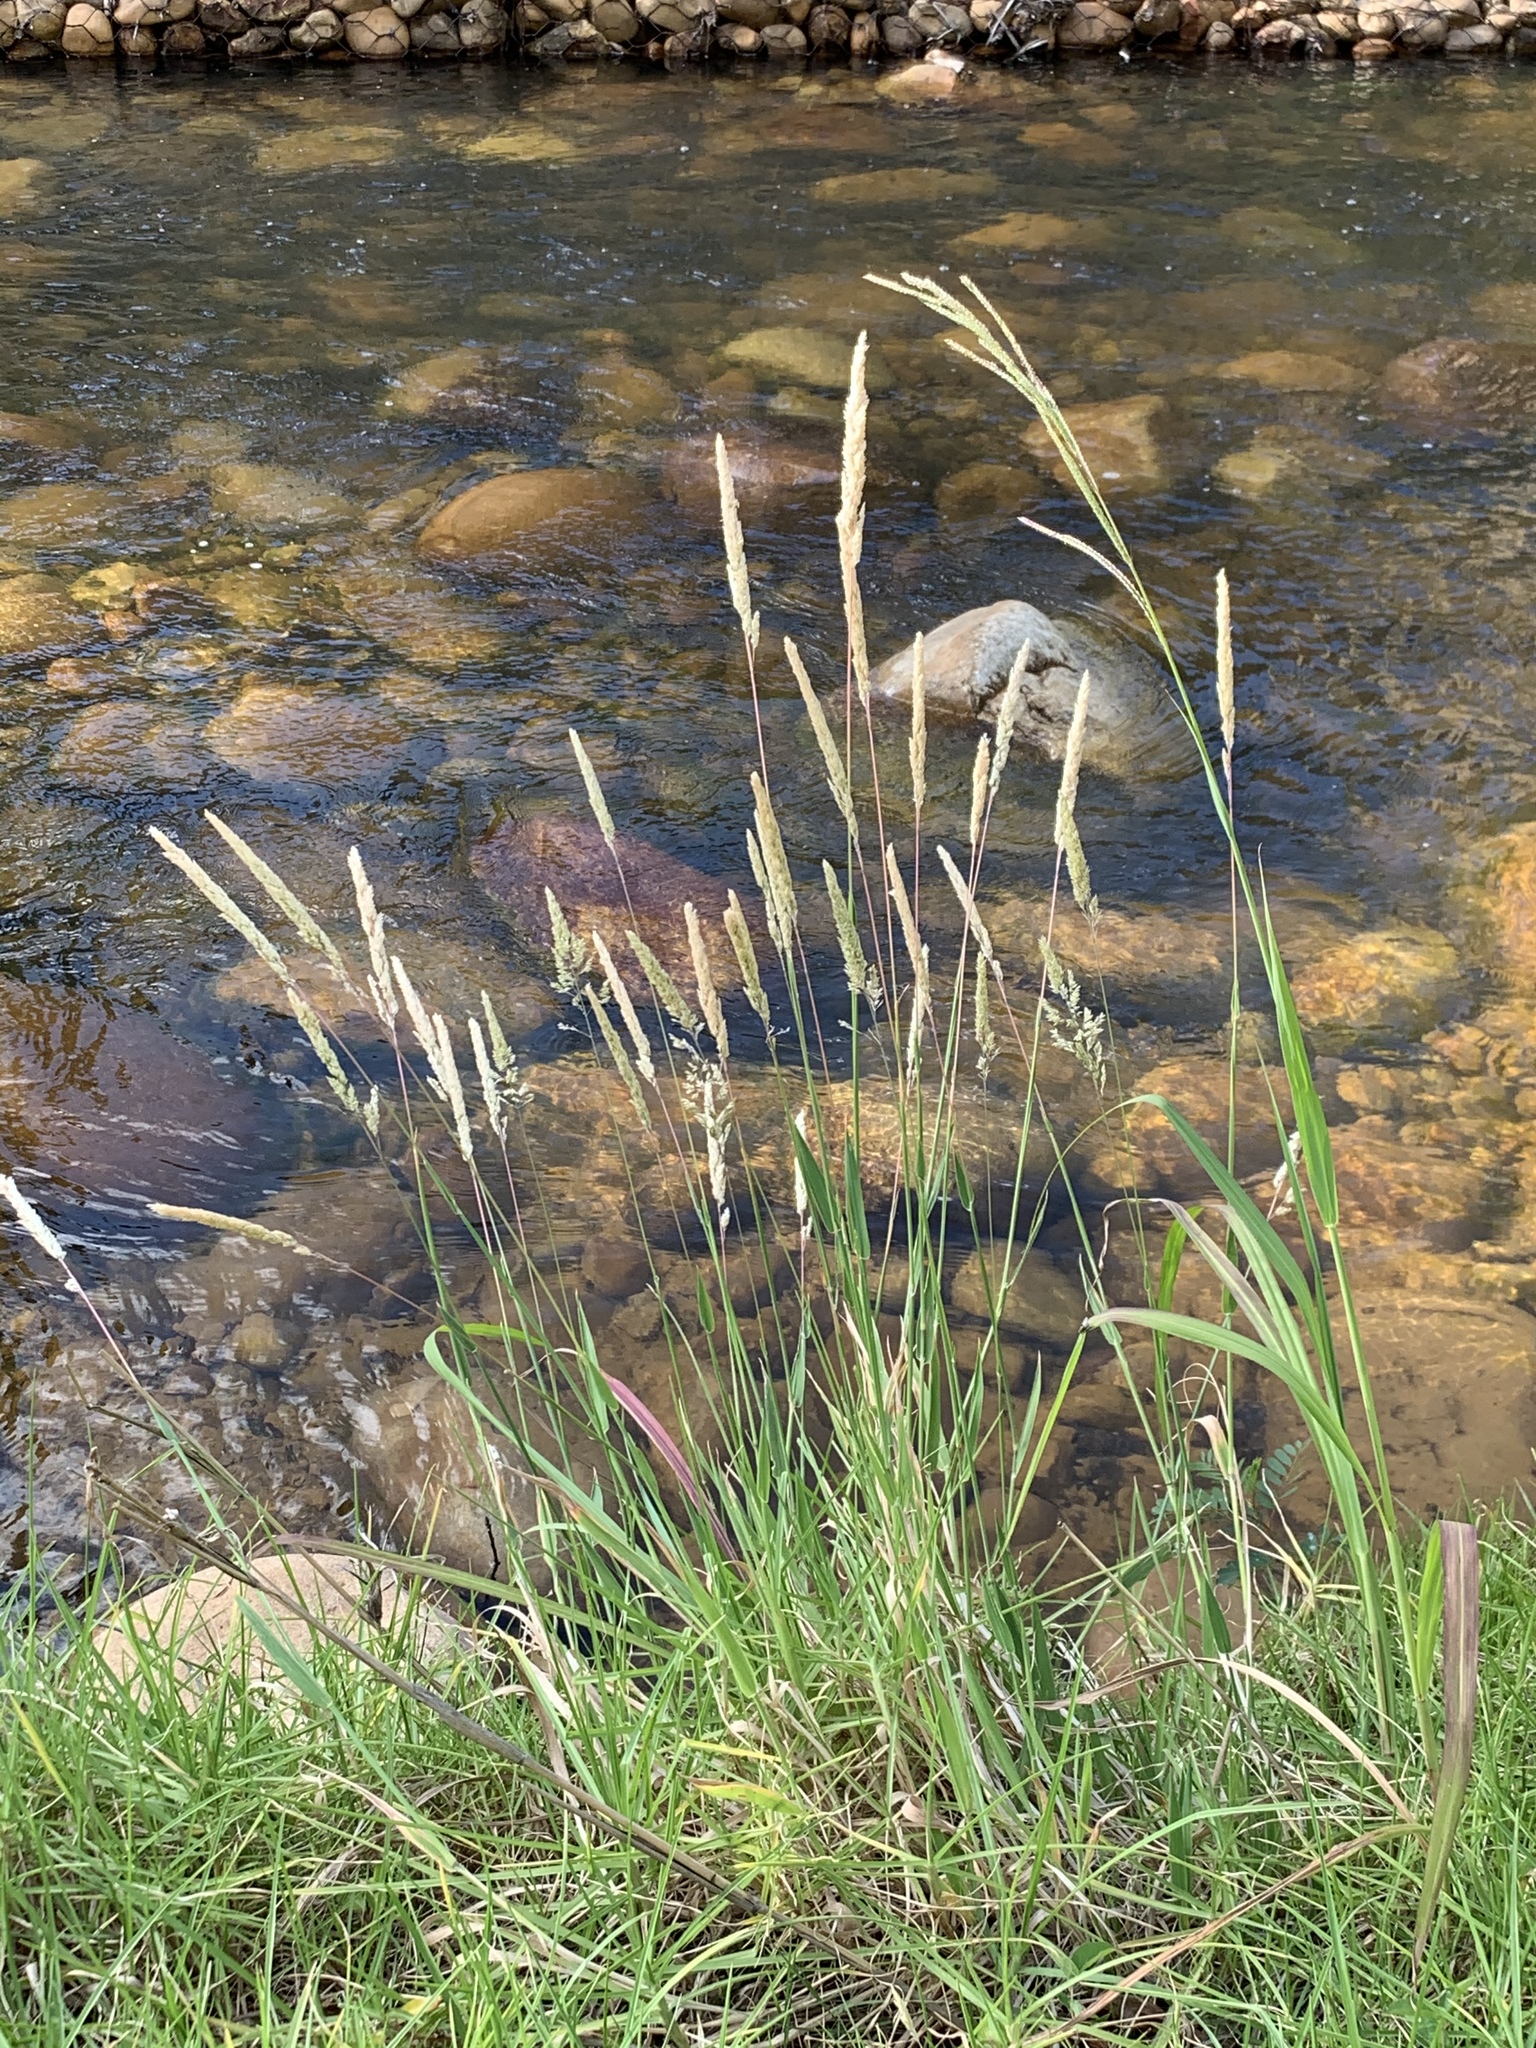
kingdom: Plantae
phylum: Tracheophyta
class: Liliopsida
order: Poales
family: Poaceae
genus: Holcus
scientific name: Holcus lanatus
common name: Yorkshire-fog
